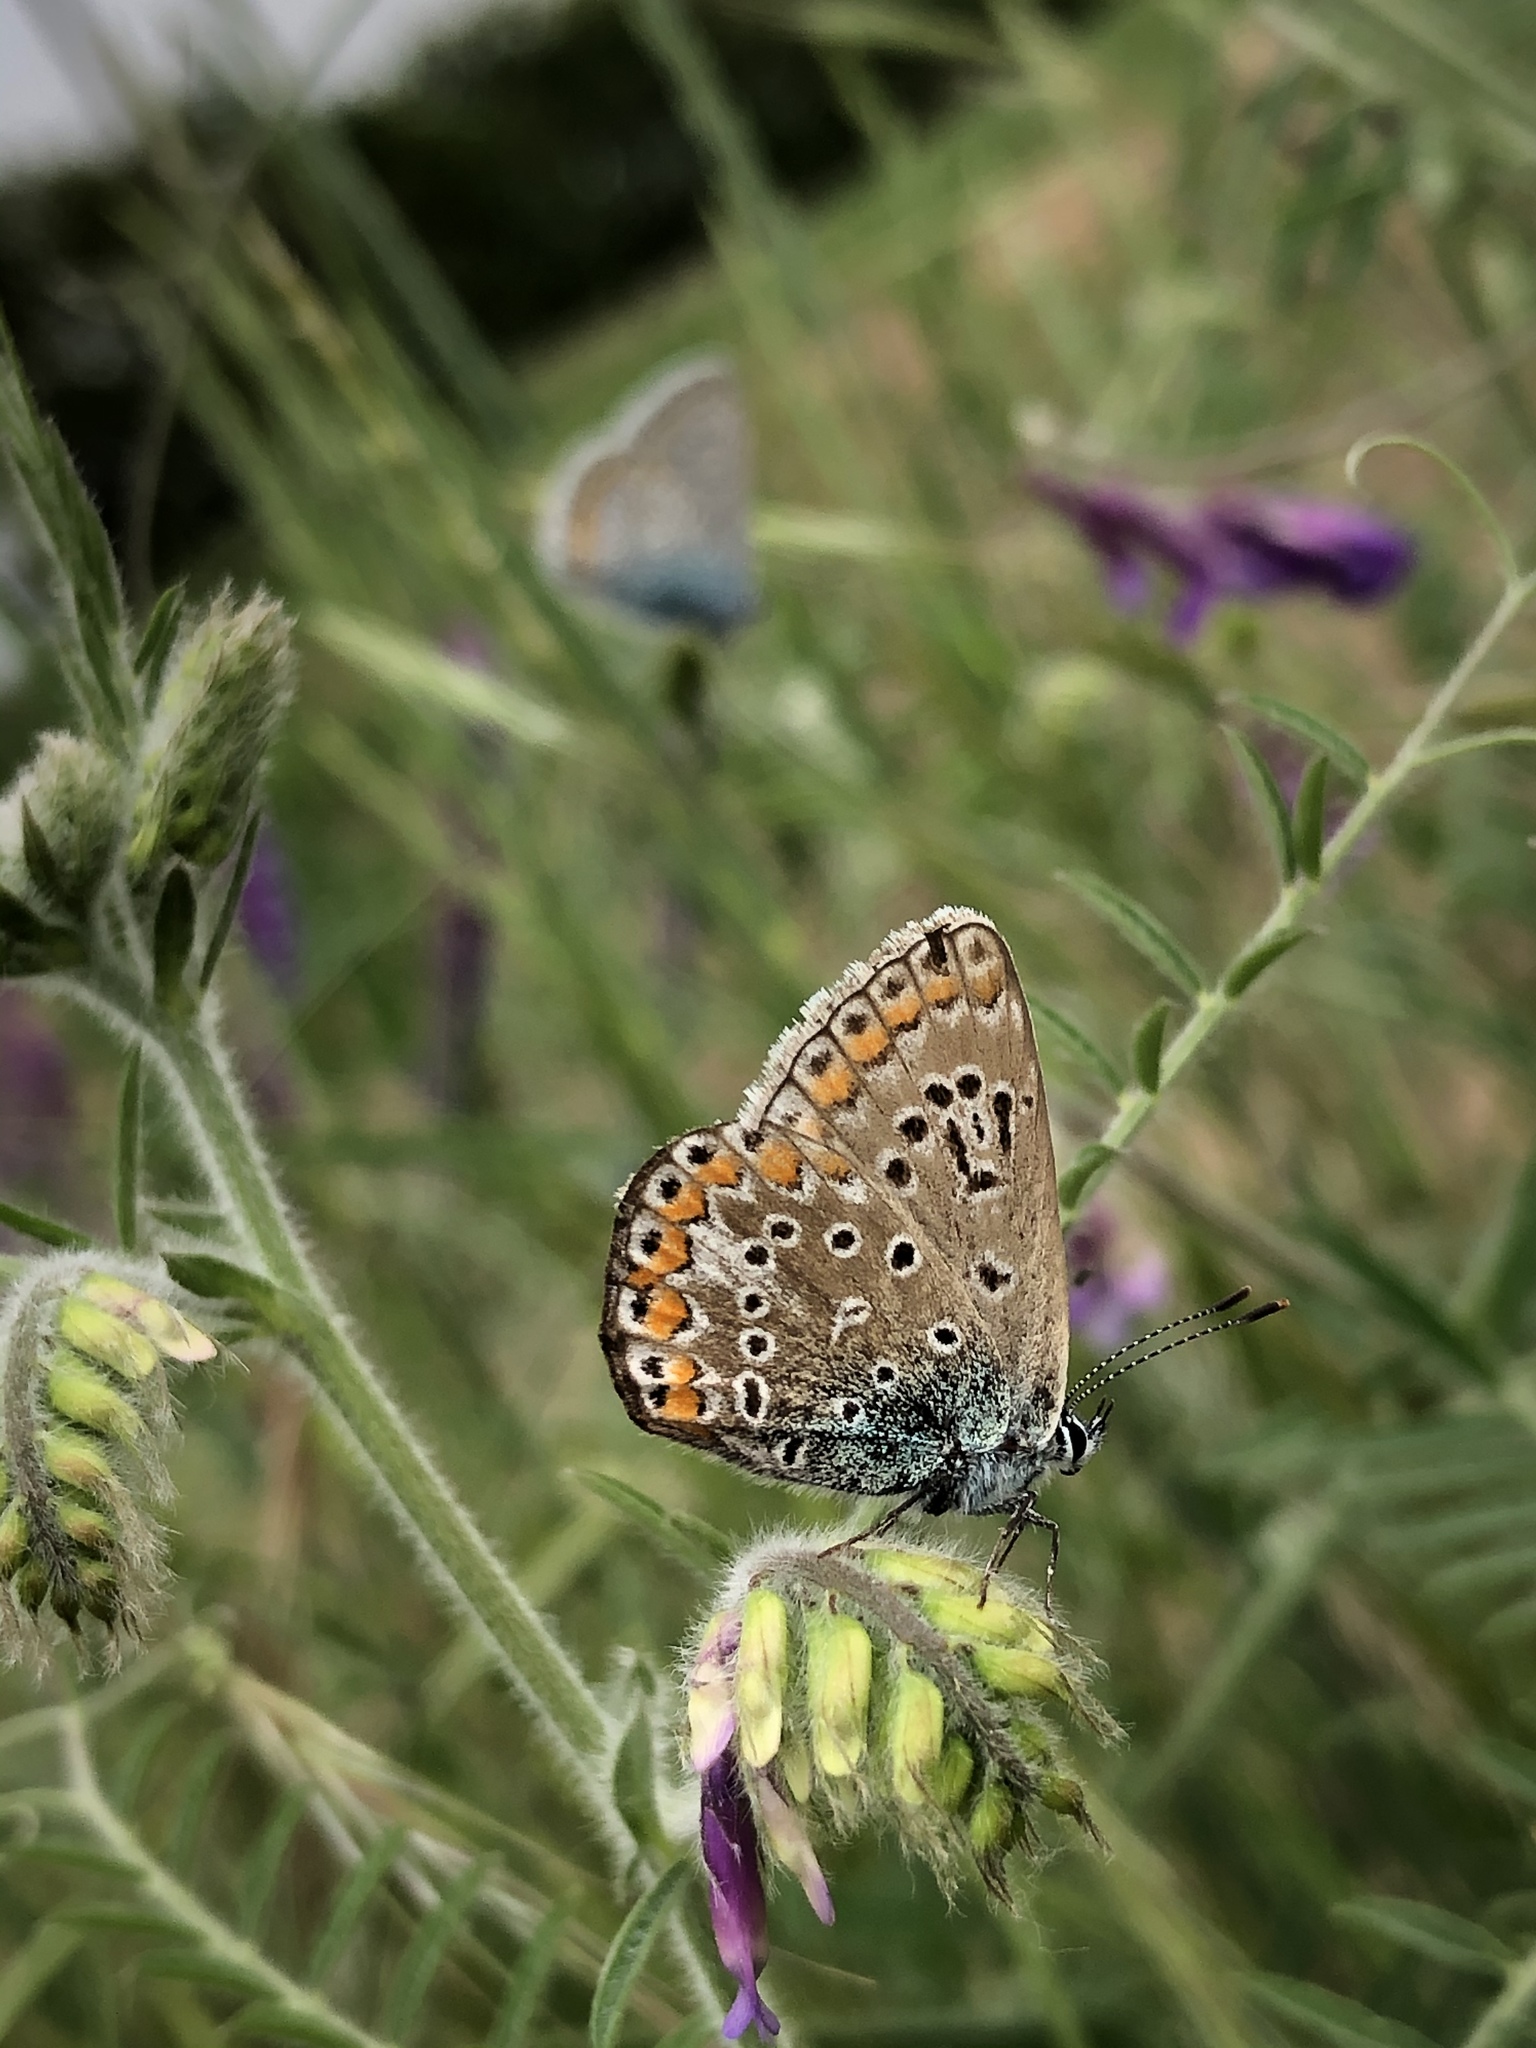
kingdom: Animalia
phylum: Arthropoda
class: Insecta
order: Lepidoptera
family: Lycaenidae
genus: Polyommatus
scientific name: Polyommatus icarus
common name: Common blue
